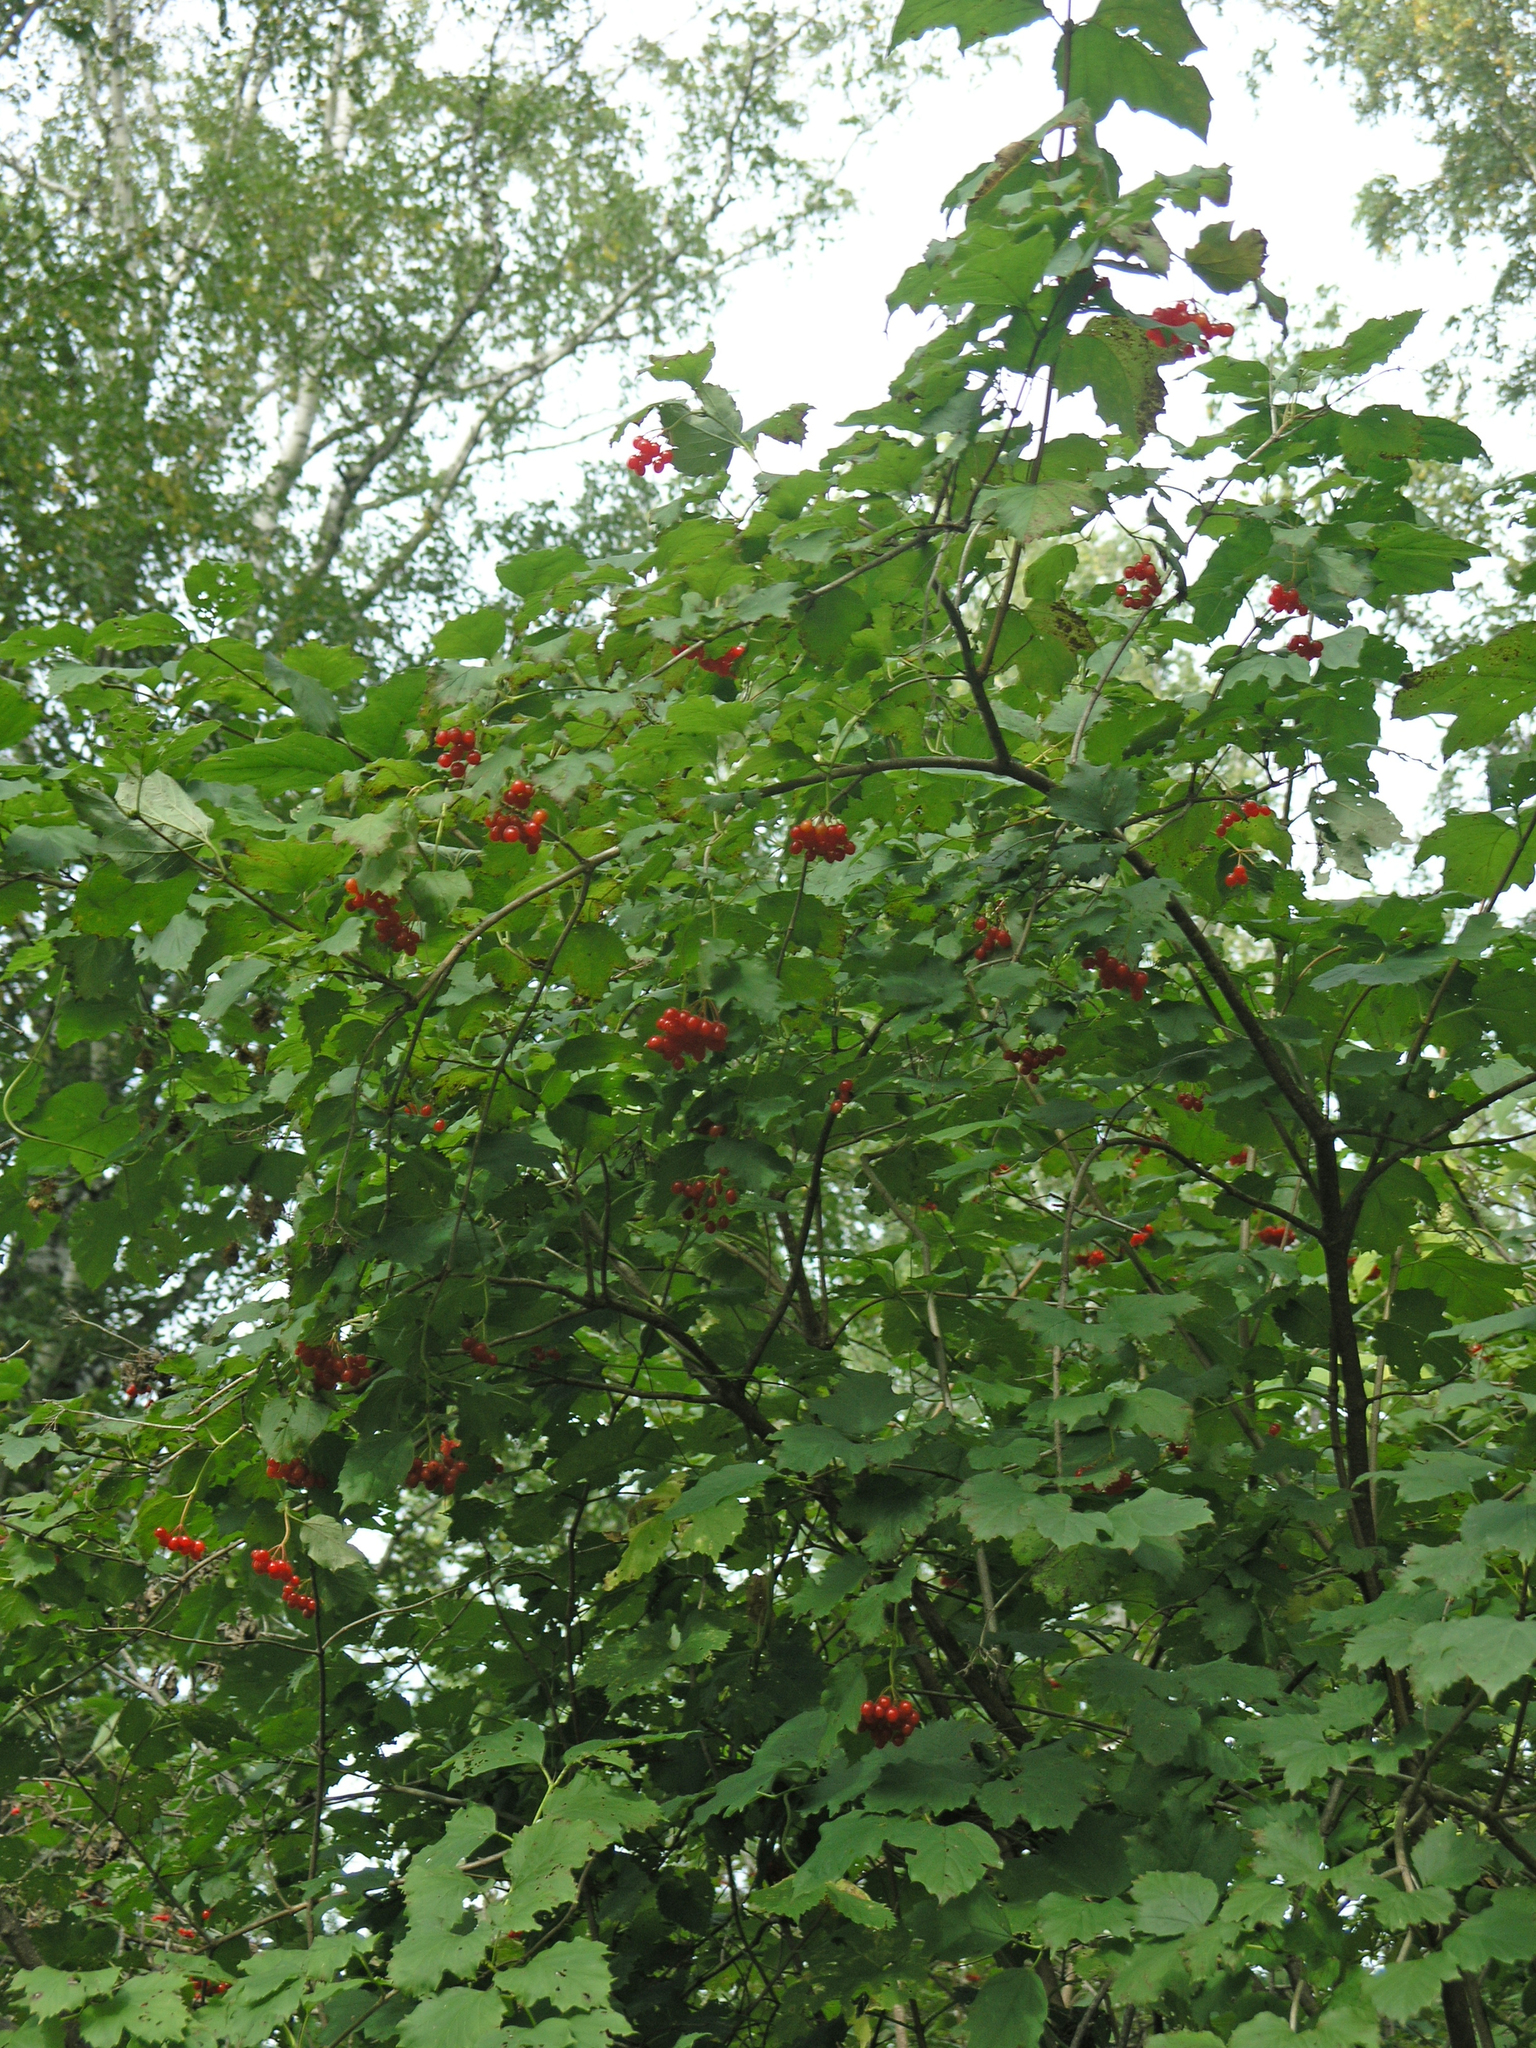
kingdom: Plantae
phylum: Tracheophyta
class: Magnoliopsida
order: Dipsacales
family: Viburnaceae
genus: Viburnum
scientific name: Viburnum opulus
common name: Guelder-rose
